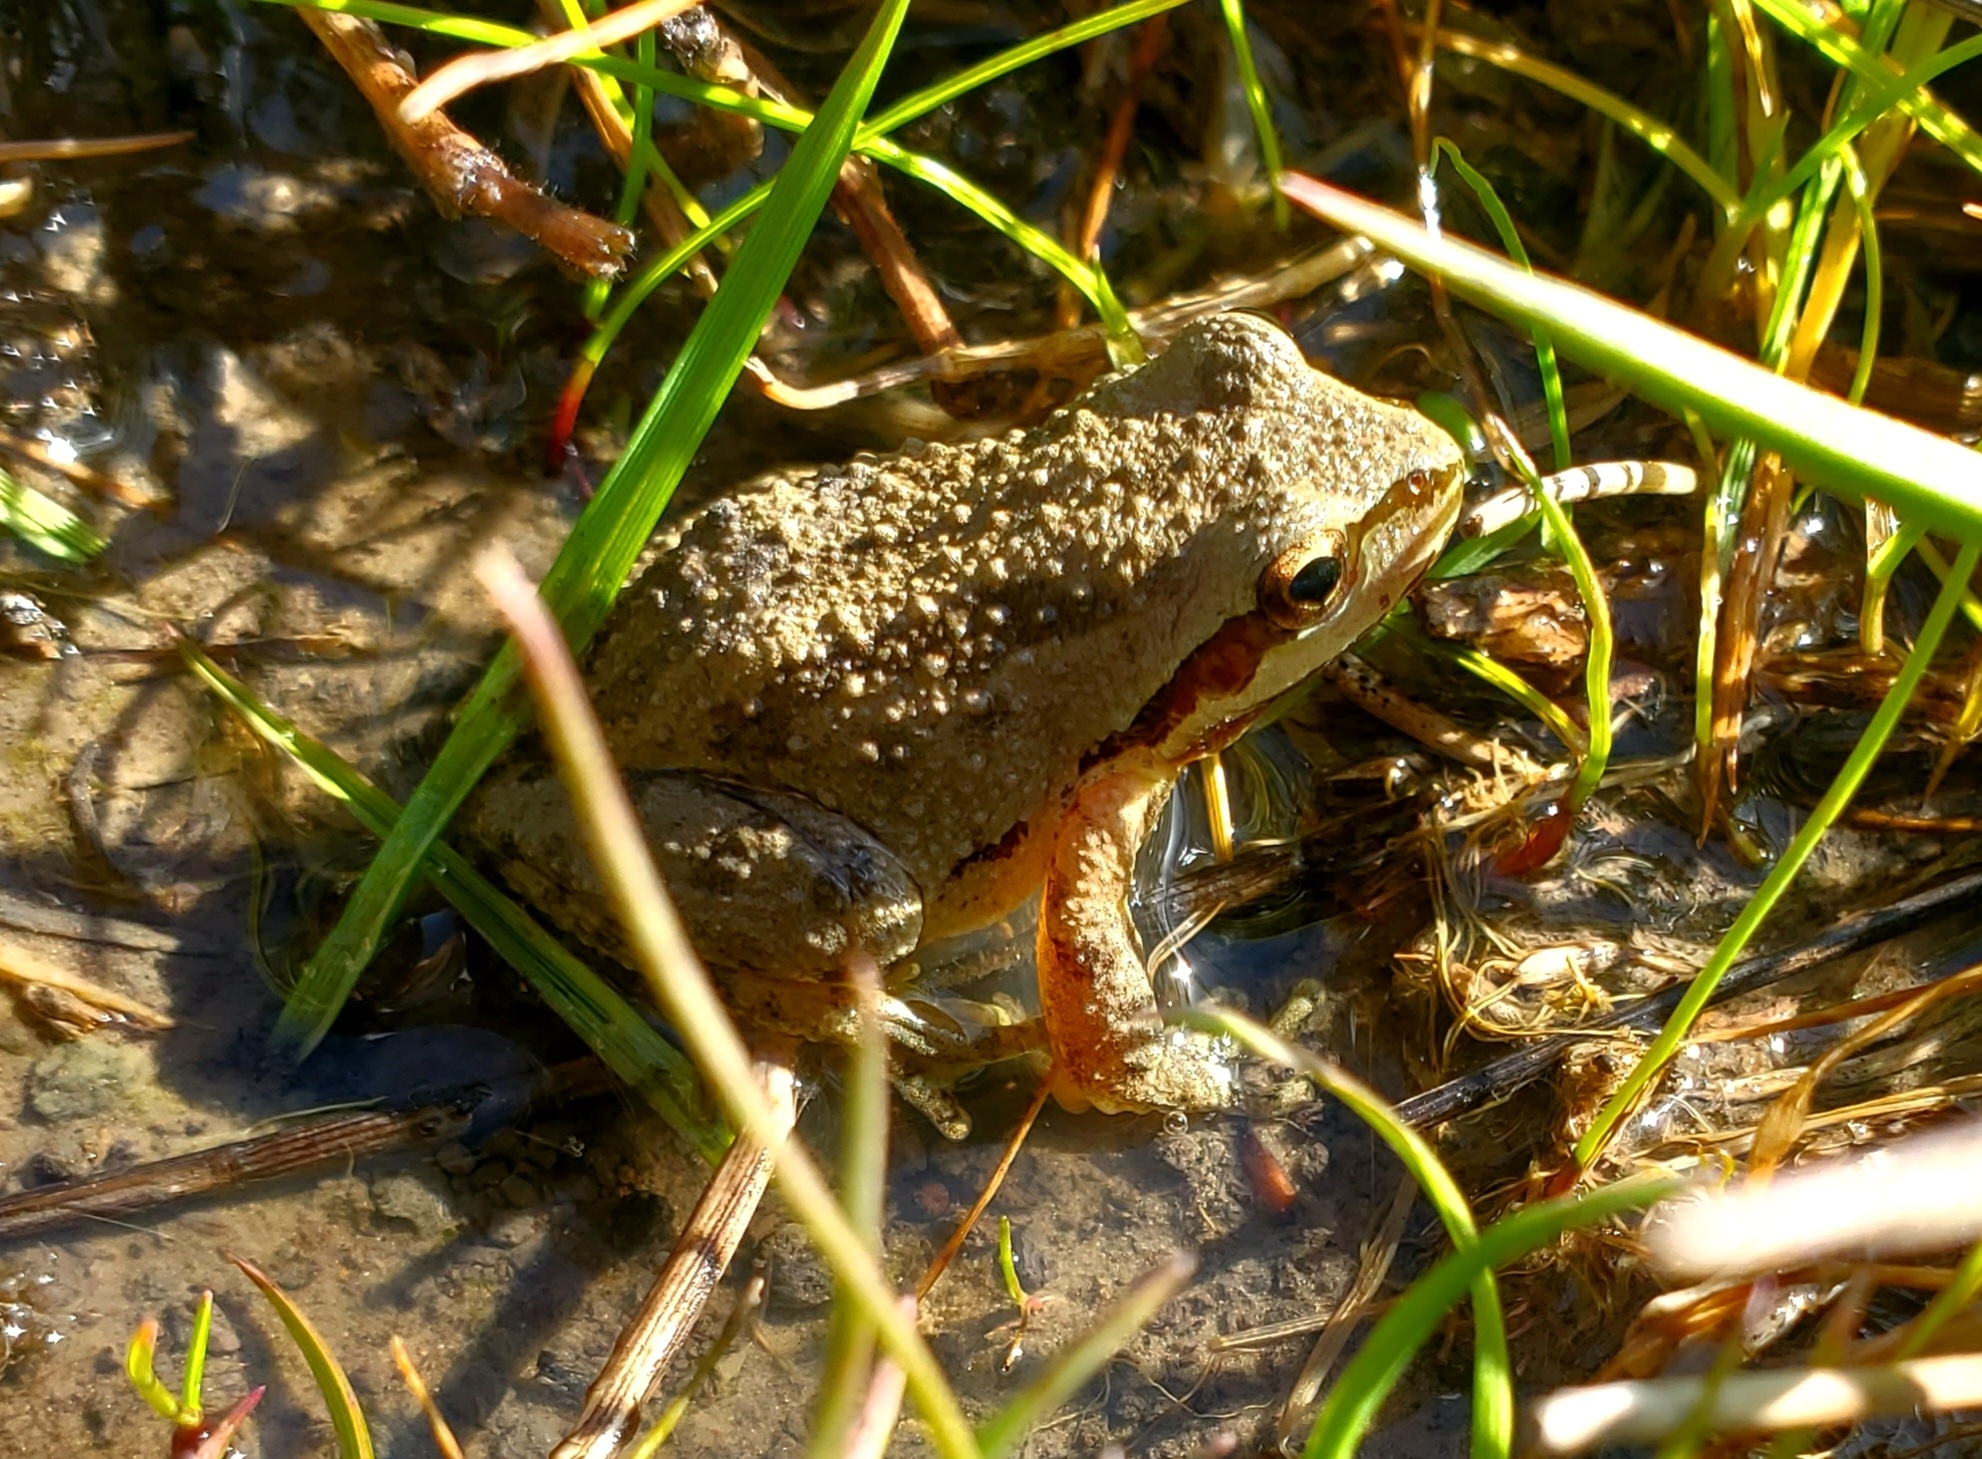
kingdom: Animalia
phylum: Chordata
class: Amphibia
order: Anura
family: Hylidae
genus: Pseudacris
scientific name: Pseudacris regilla
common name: Pacific chorus frog
